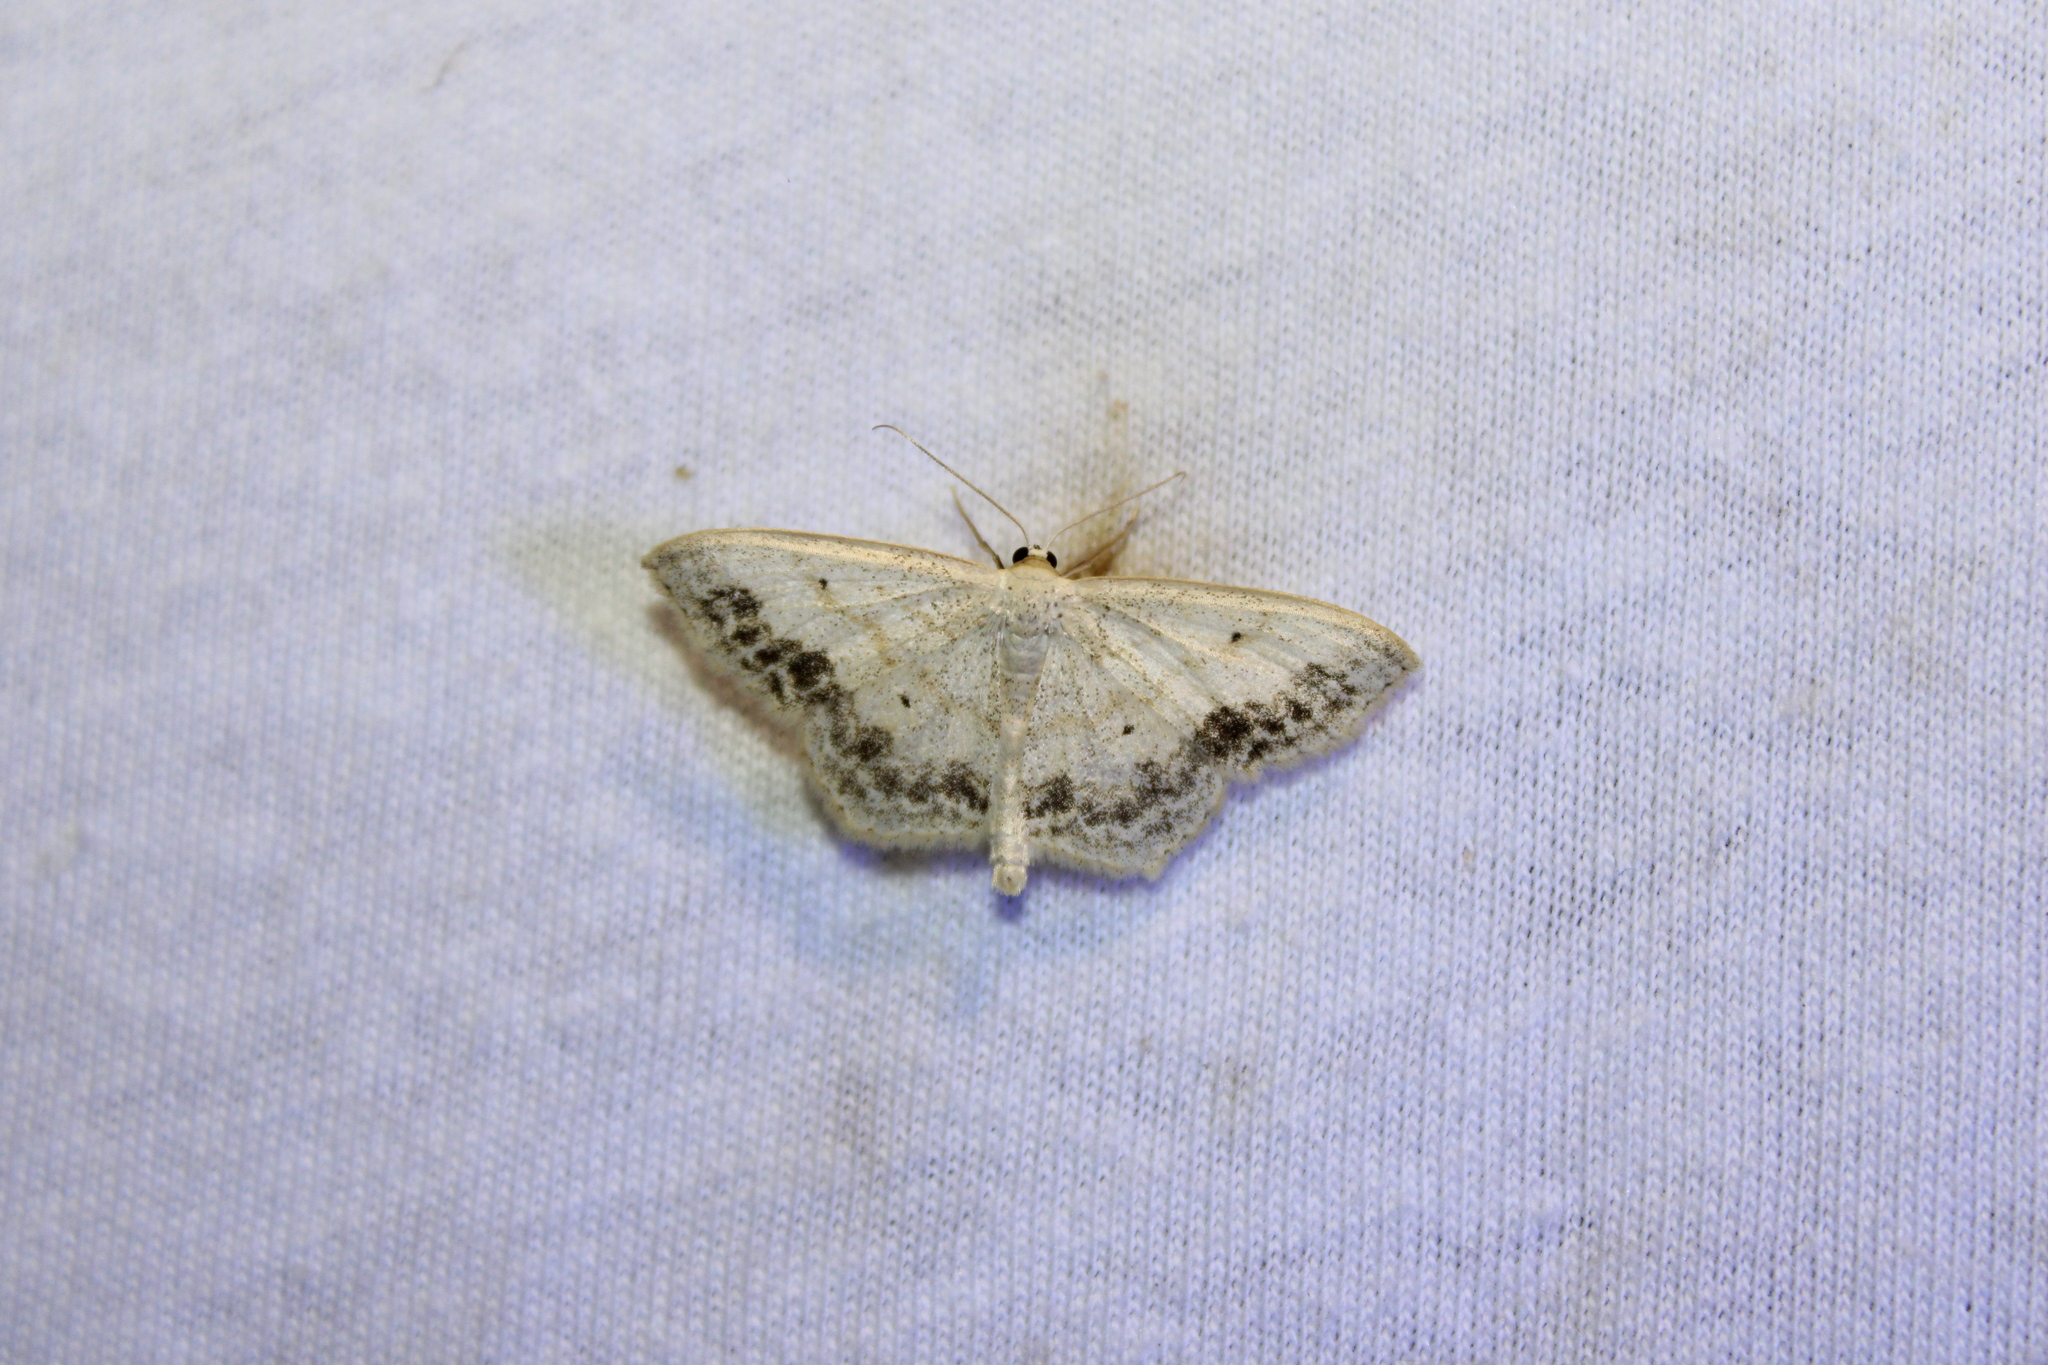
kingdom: Animalia
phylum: Arthropoda
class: Insecta
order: Lepidoptera
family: Geometridae
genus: Scopula
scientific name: Scopula limboundata
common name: Large lace border
